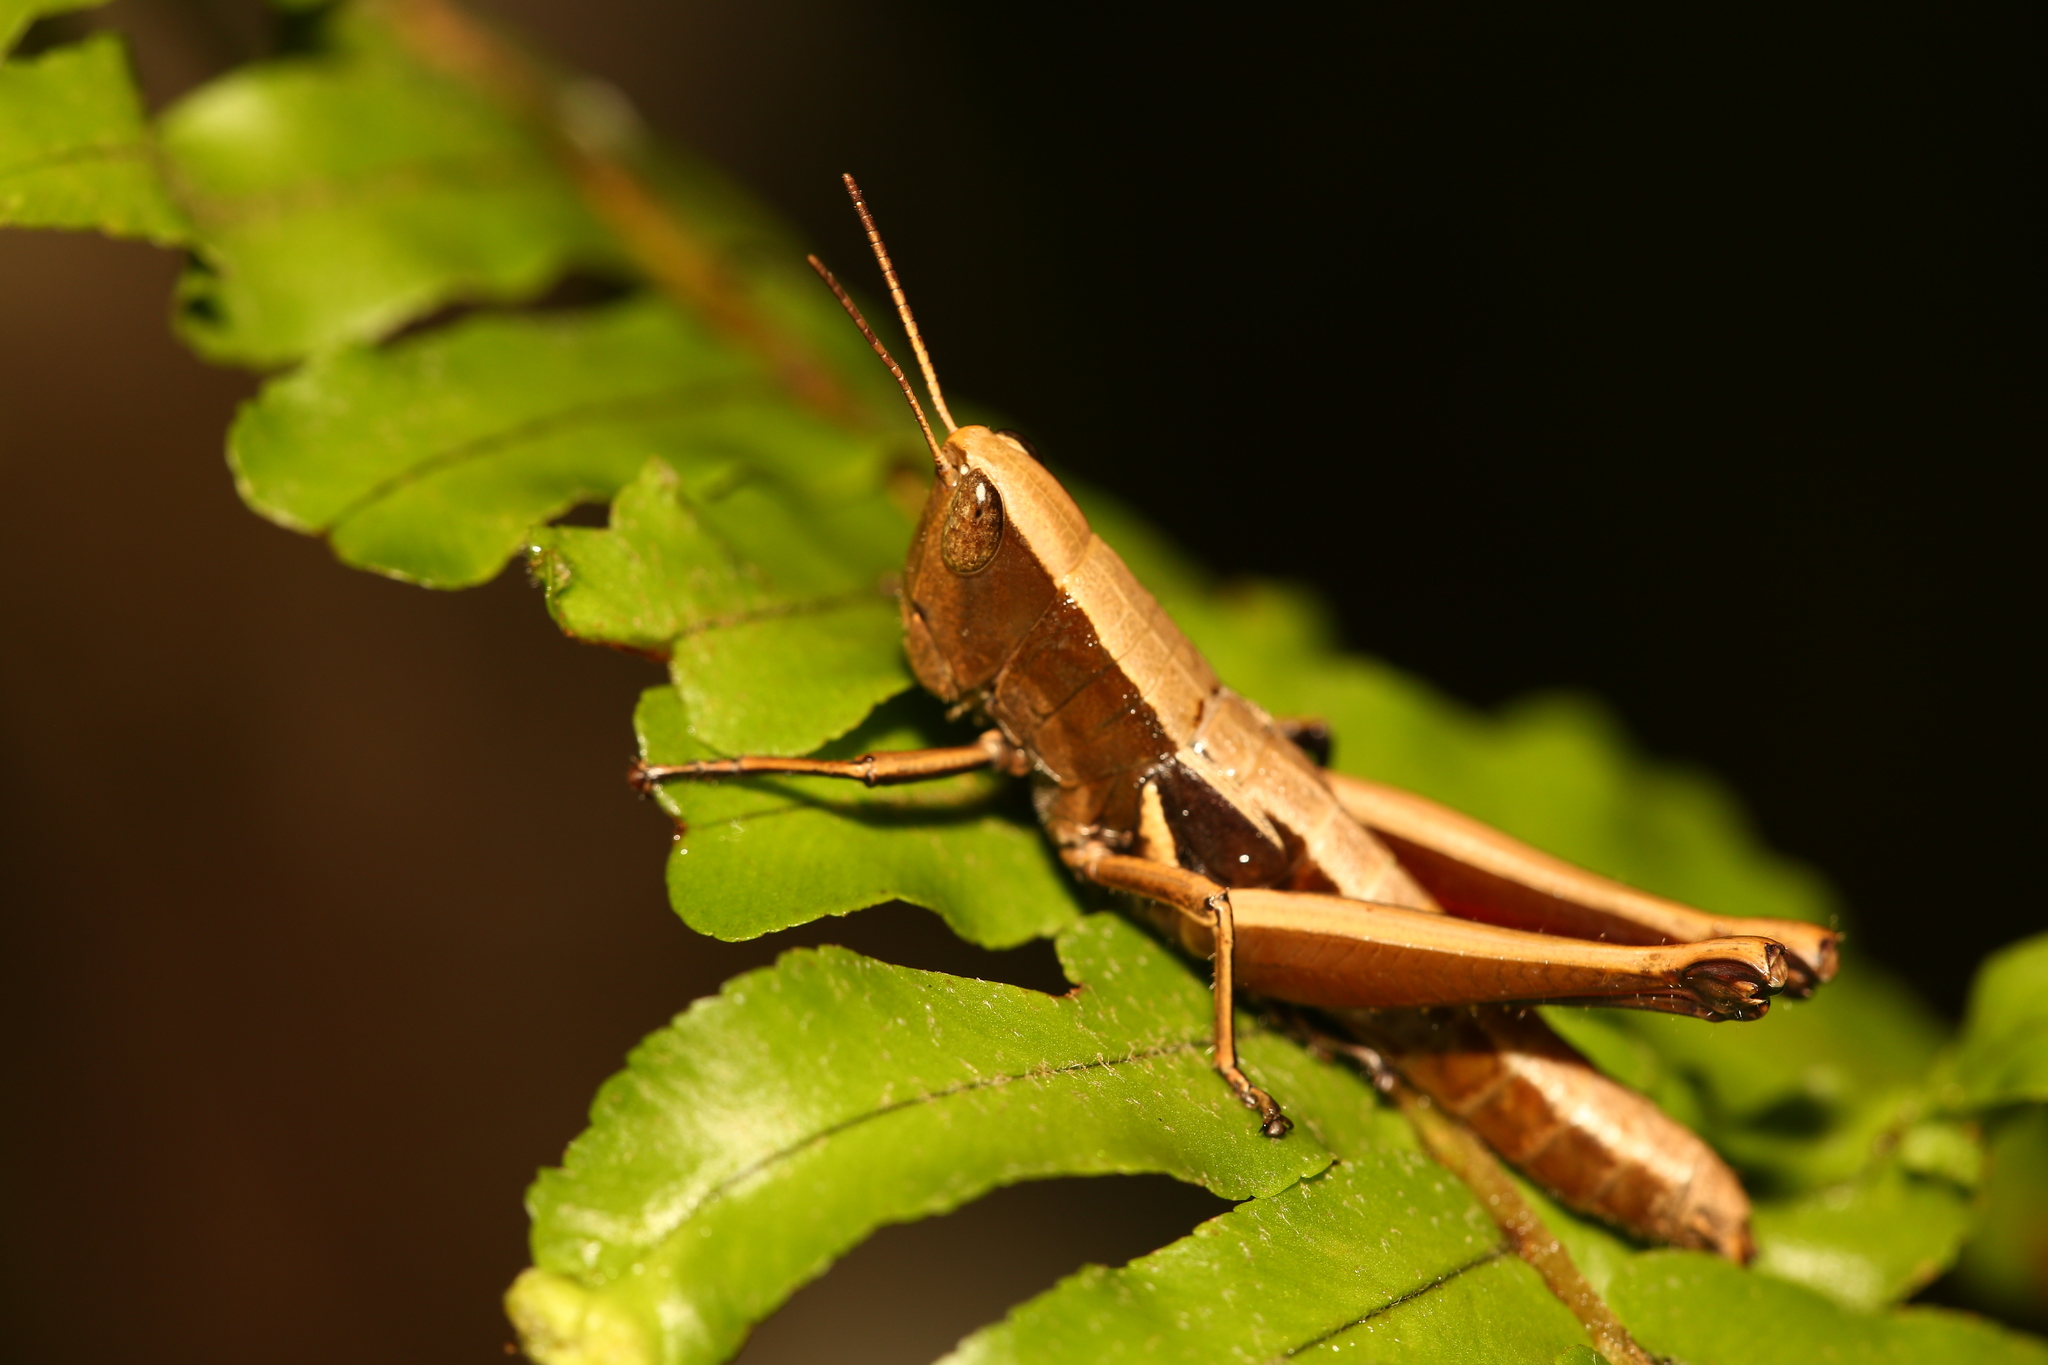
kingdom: Animalia
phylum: Arthropoda
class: Insecta
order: Orthoptera
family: Acrididae
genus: Caledonula
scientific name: Caledonula fuscovittata
